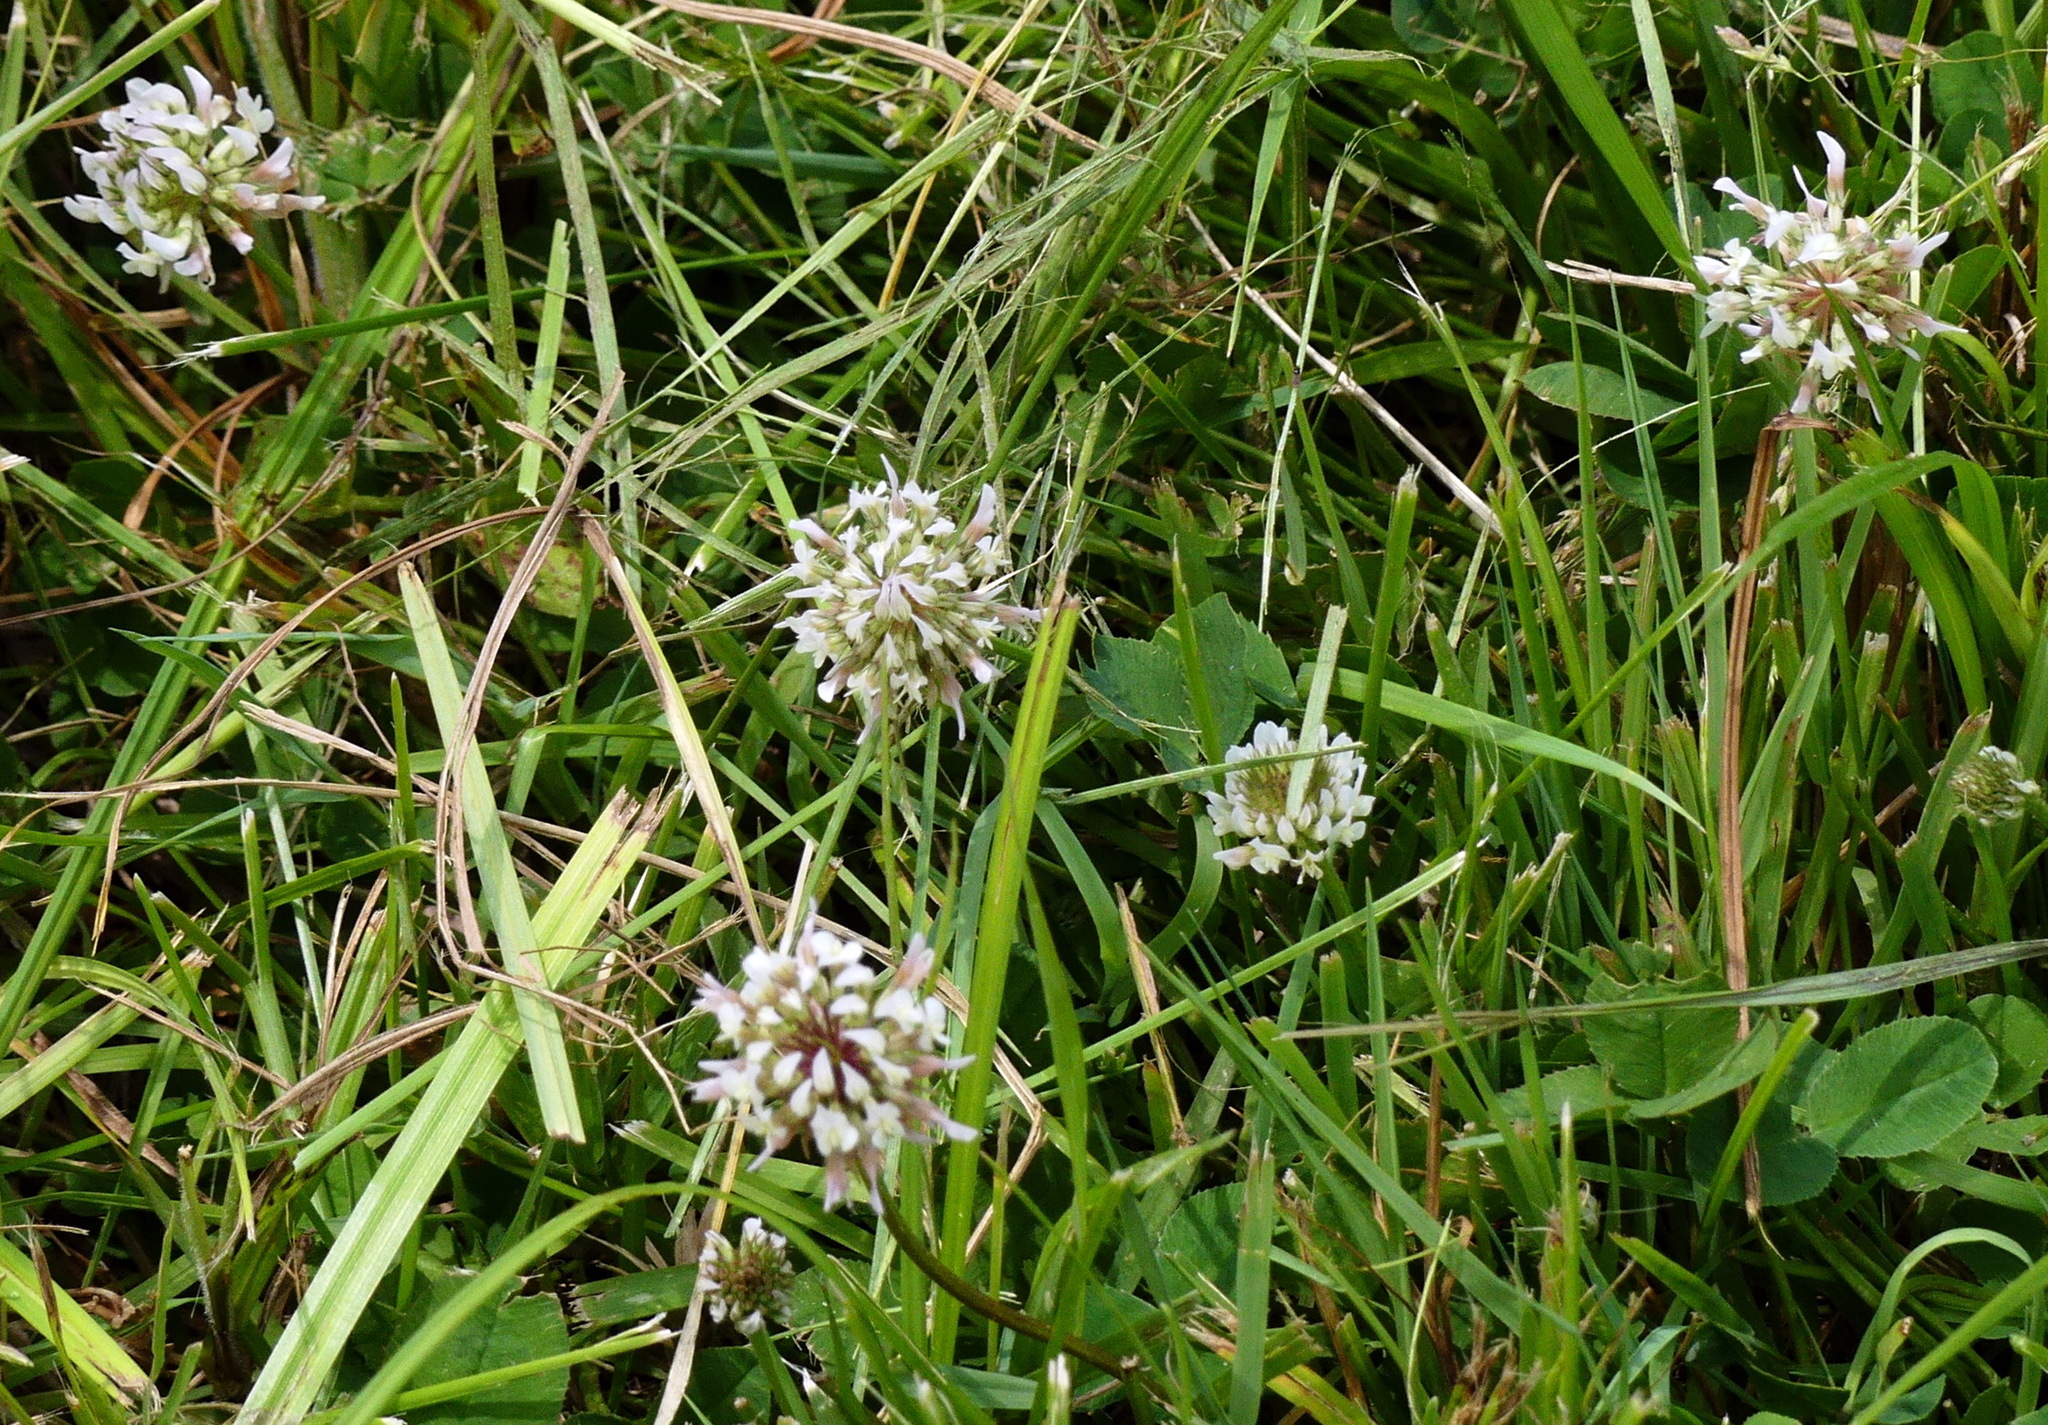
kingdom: Plantae
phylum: Tracheophyta
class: Magnoliopsida
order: Fabales
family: Fabaceae
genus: Trifolium
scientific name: Trifolium repens
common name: White clover
